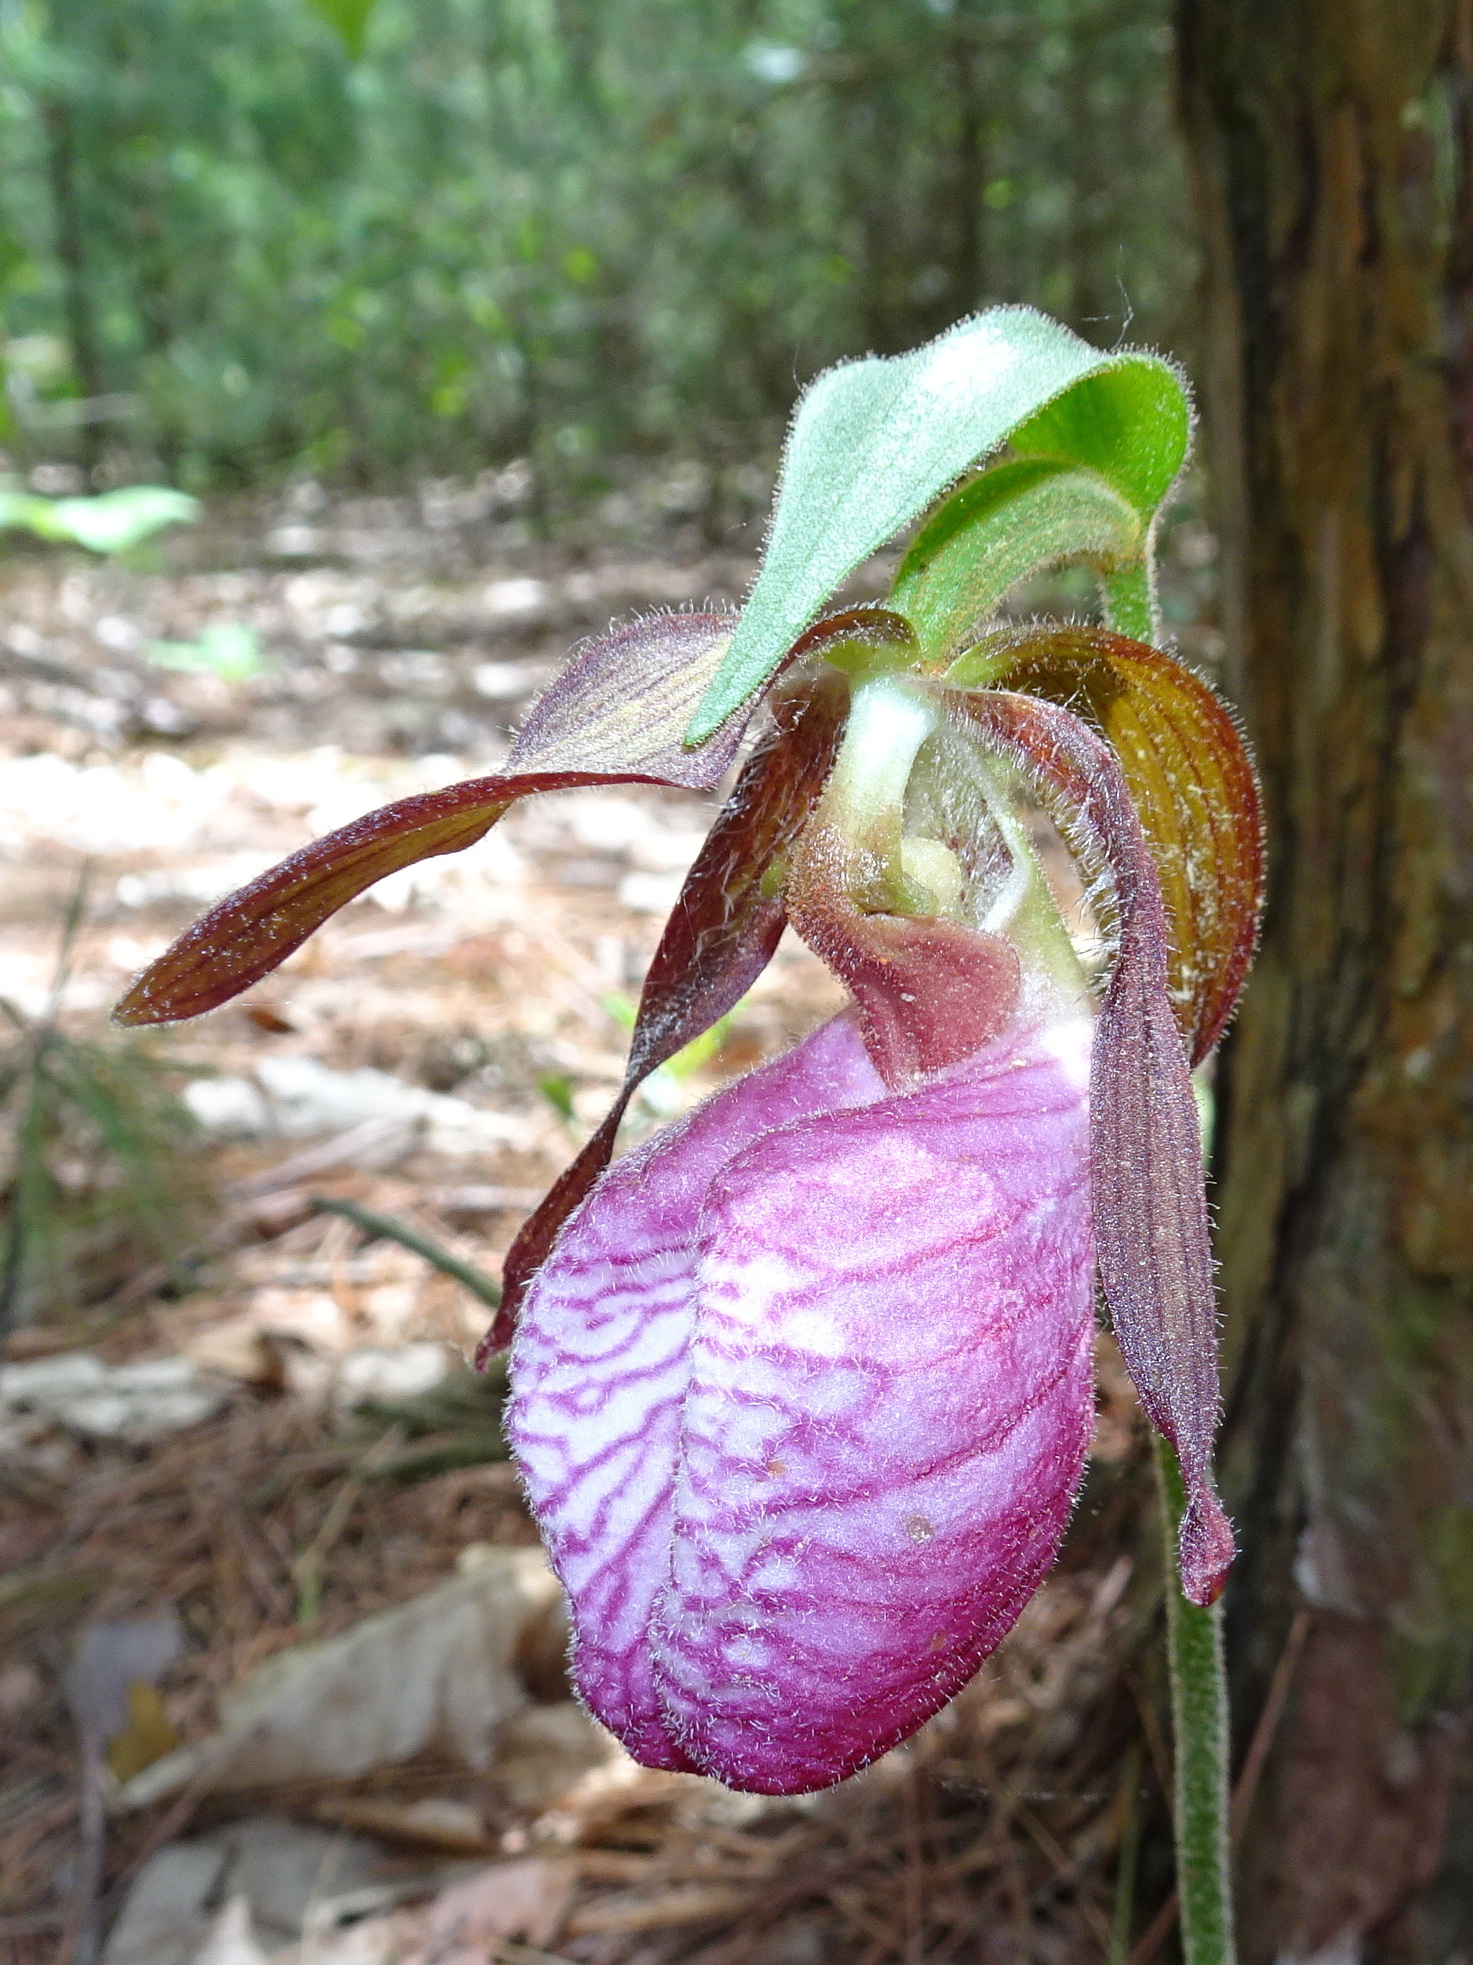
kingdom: Plantae
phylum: Tracheophyta
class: Liliopsida
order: Asparagales
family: Orchidaceae
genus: Cypripedium
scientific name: Cypripedium acaule
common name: Pink lady's-slipper
